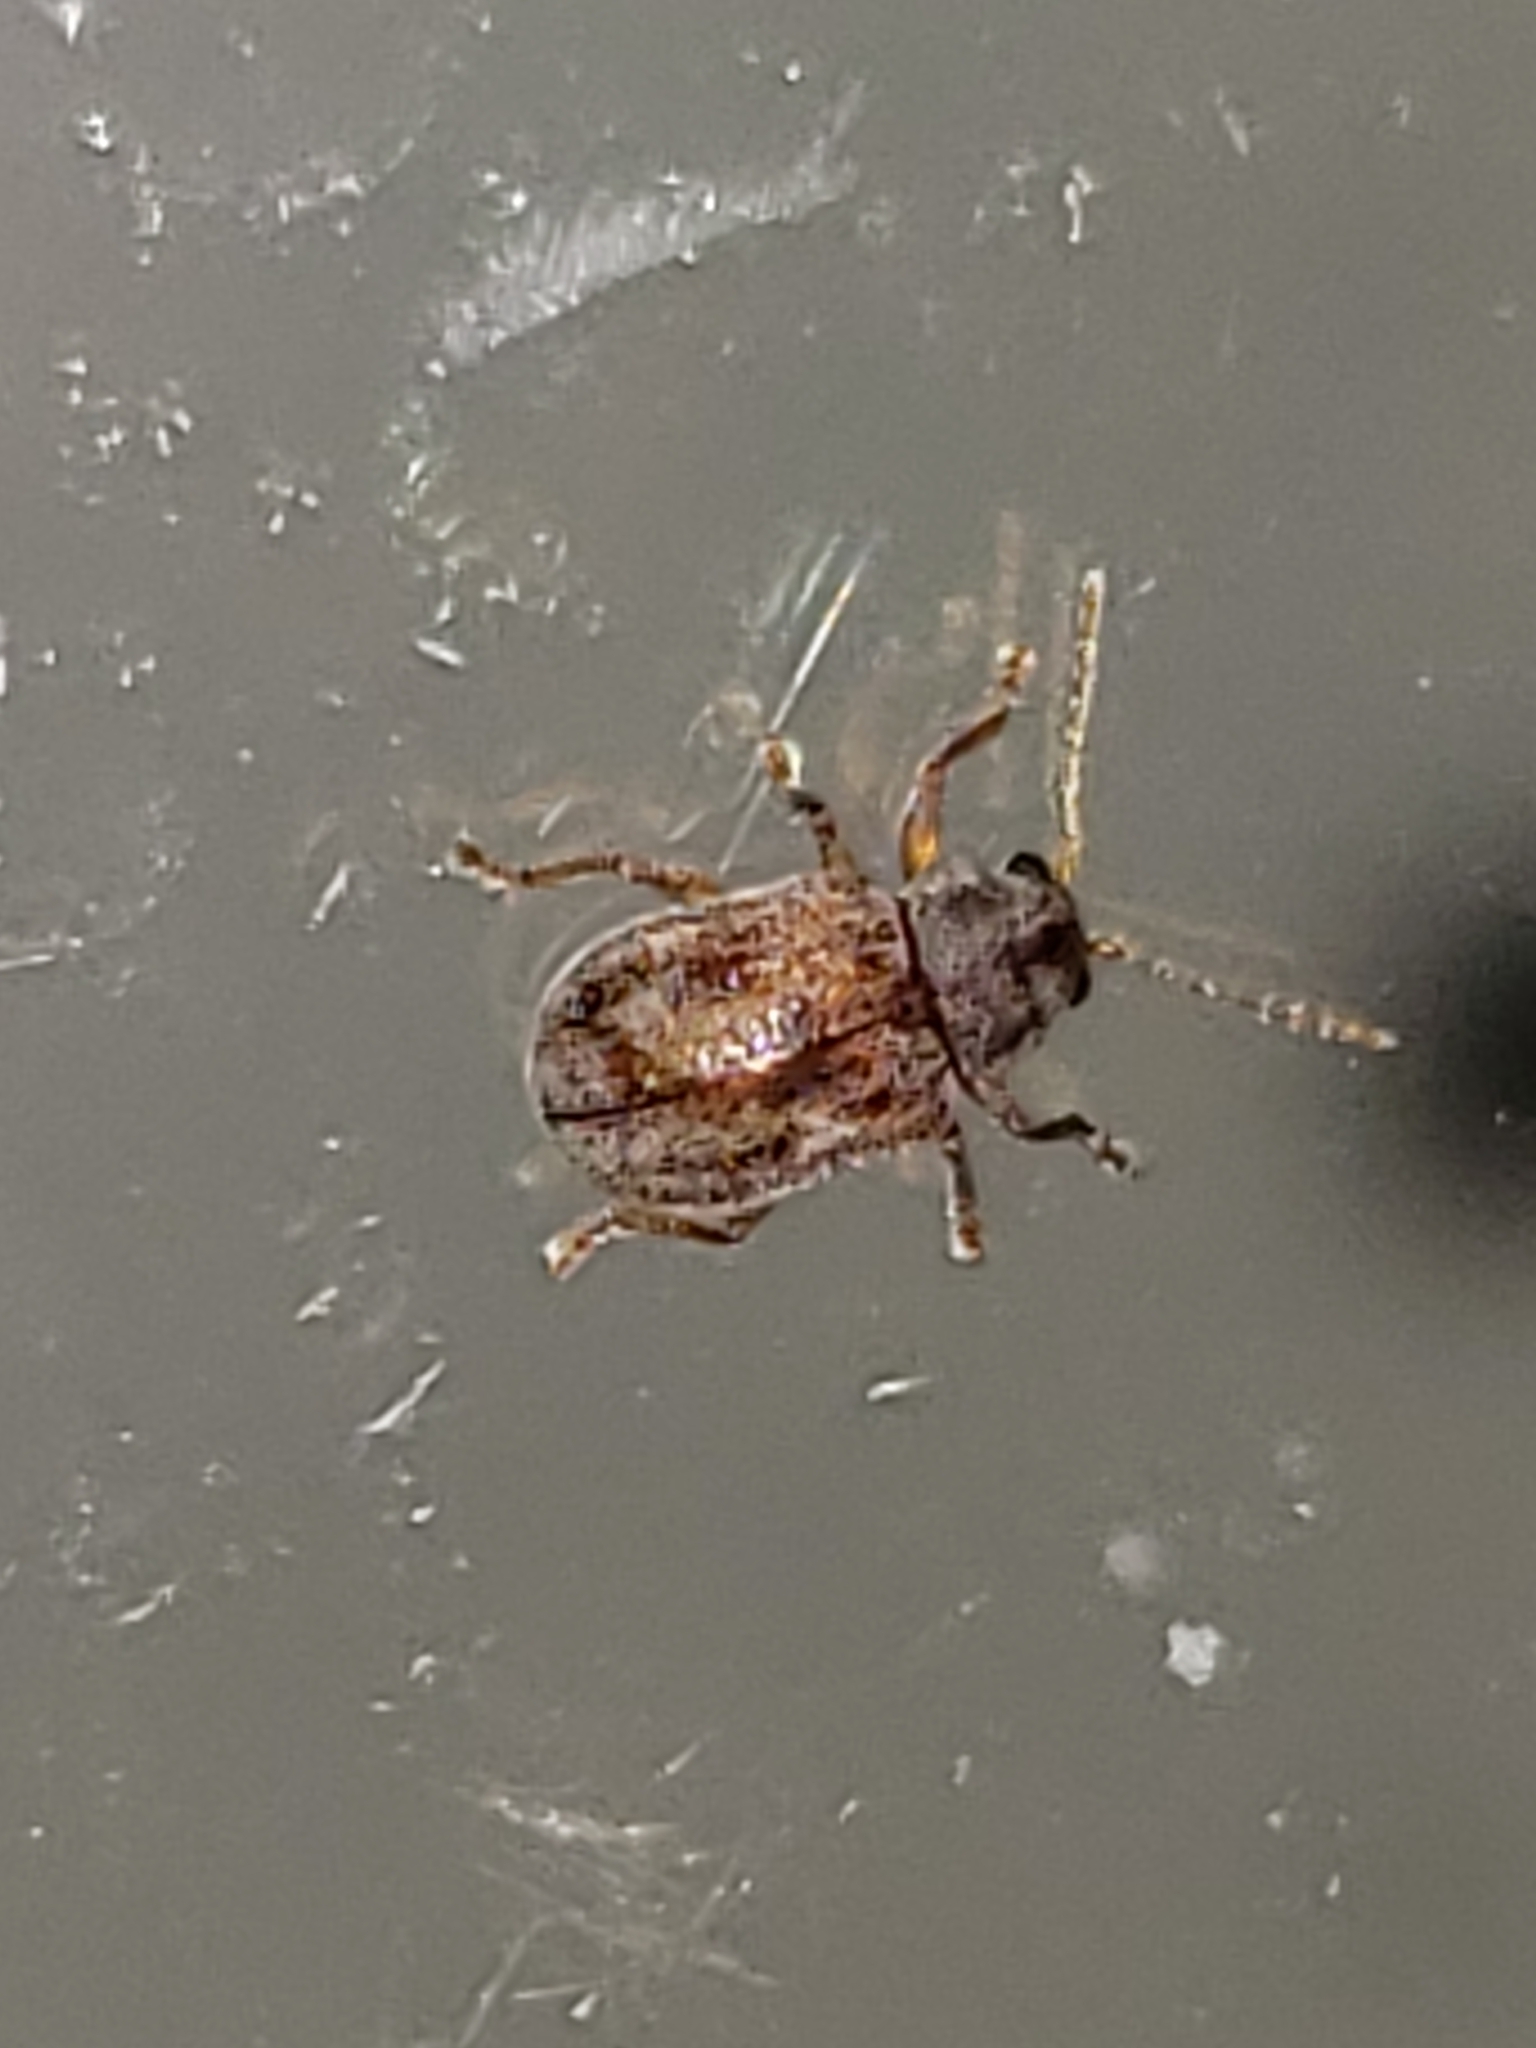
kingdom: Animalia
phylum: Arthropoda
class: Insecta
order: Coleoptera
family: Chrysomelidae
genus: Demotina
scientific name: Demotina modesta
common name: Leaf beetle
